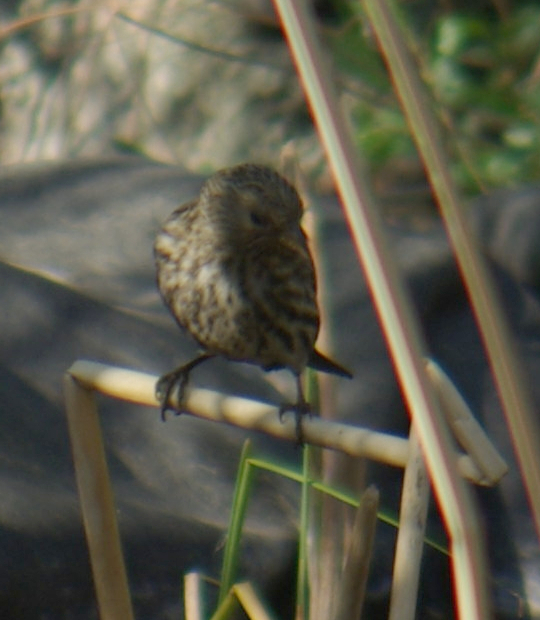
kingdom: Animalia
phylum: Chordata
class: Aves
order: Passeriformes
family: Fringillidae
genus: Spinus
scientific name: Spinus pinus
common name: Pine siskin
